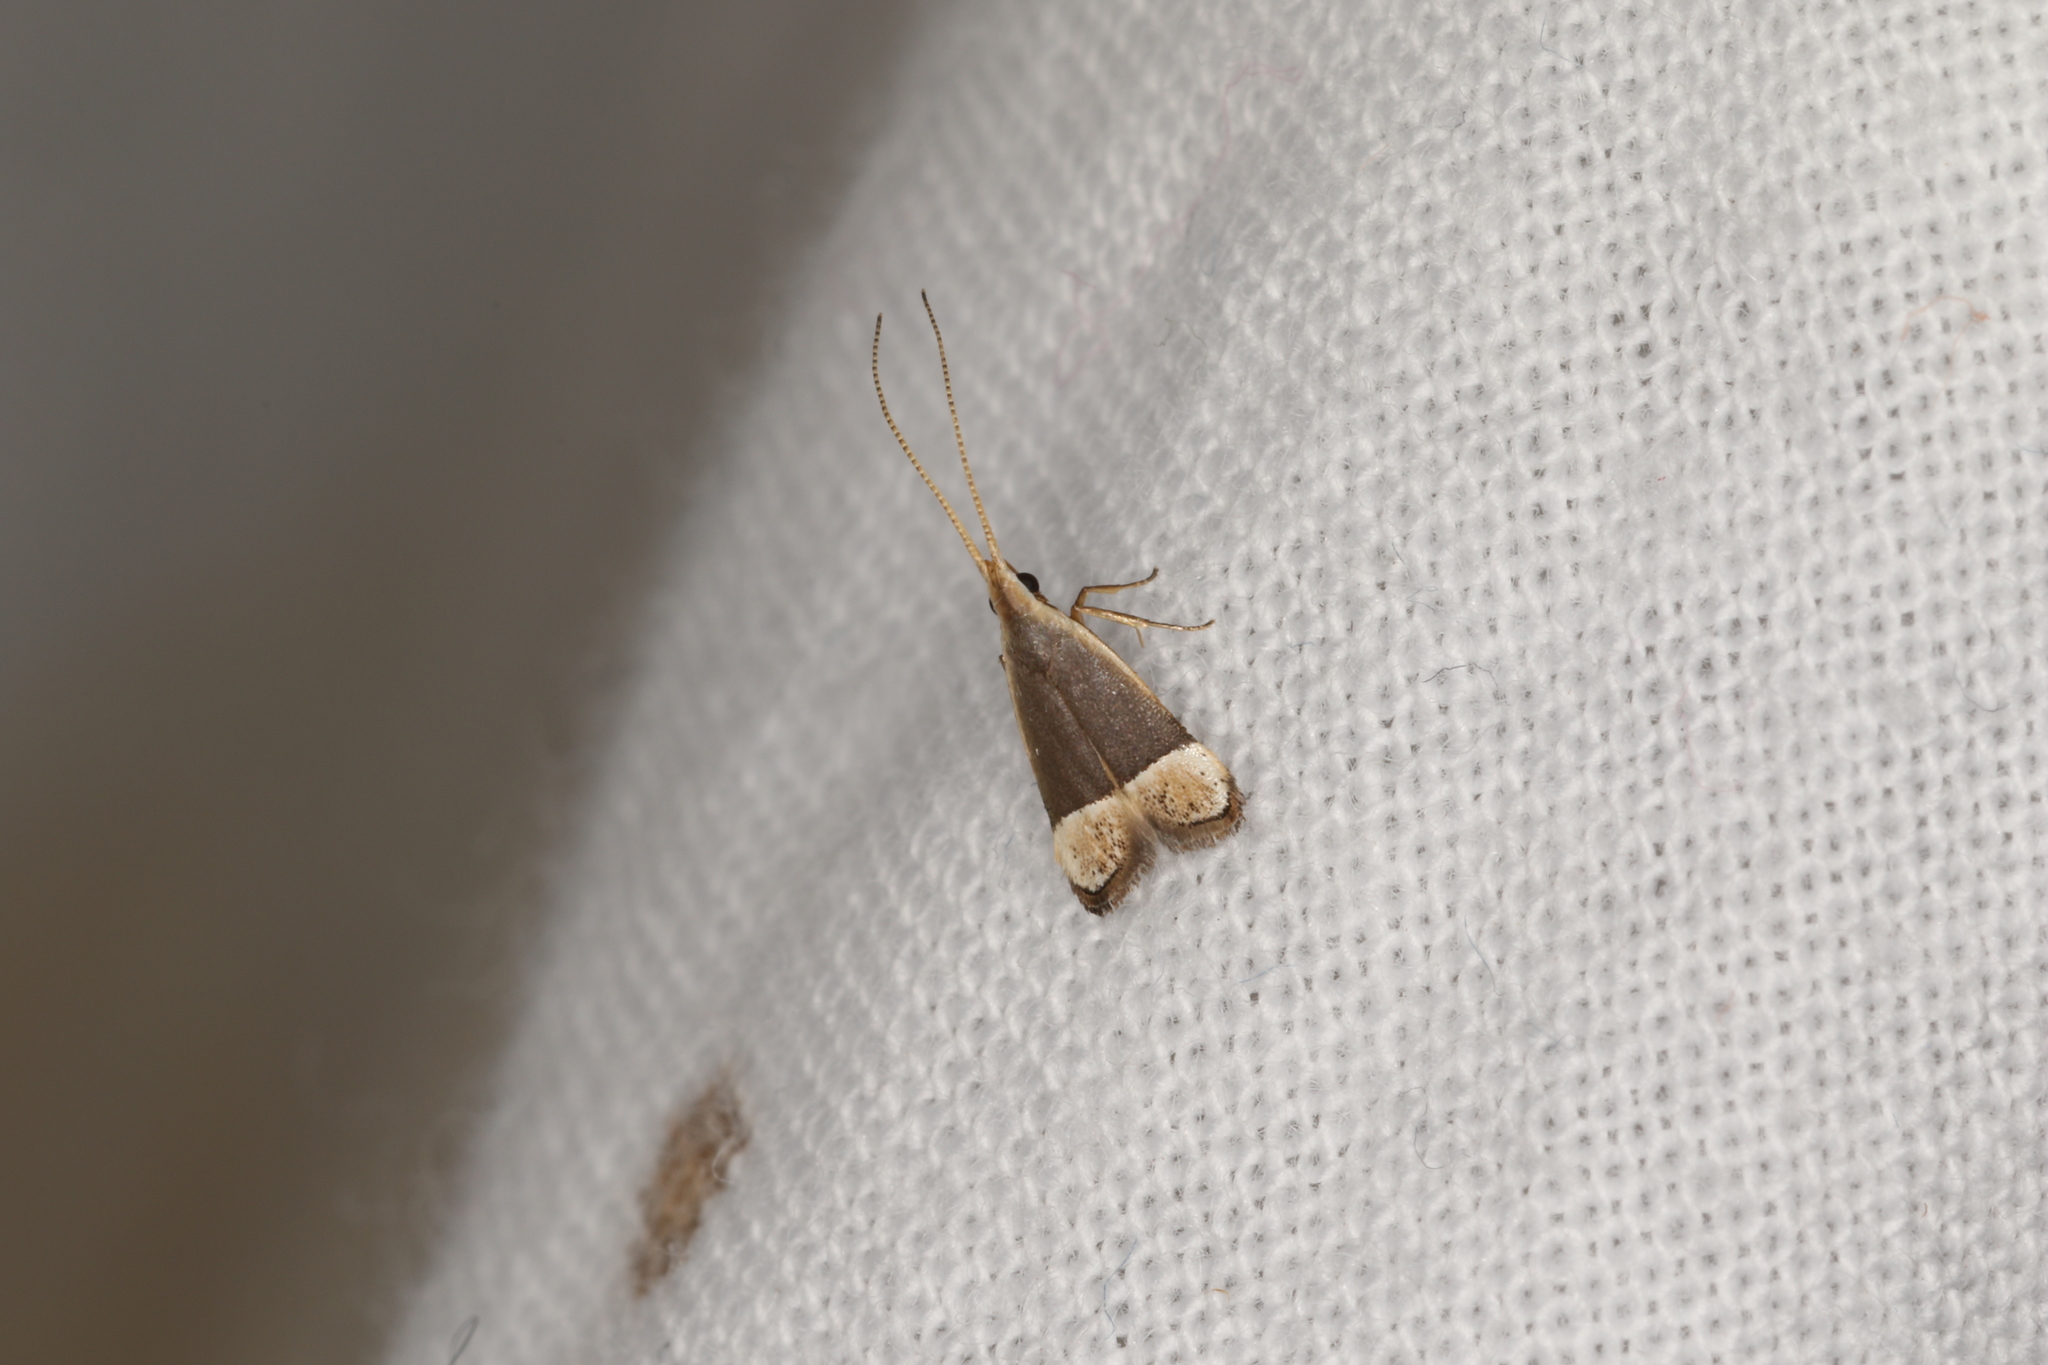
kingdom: Animalia
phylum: Arthropoda
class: Insecta
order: Lepidoptera
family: Lecithoceridae
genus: Sarisophora
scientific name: Sarisophora tenella
